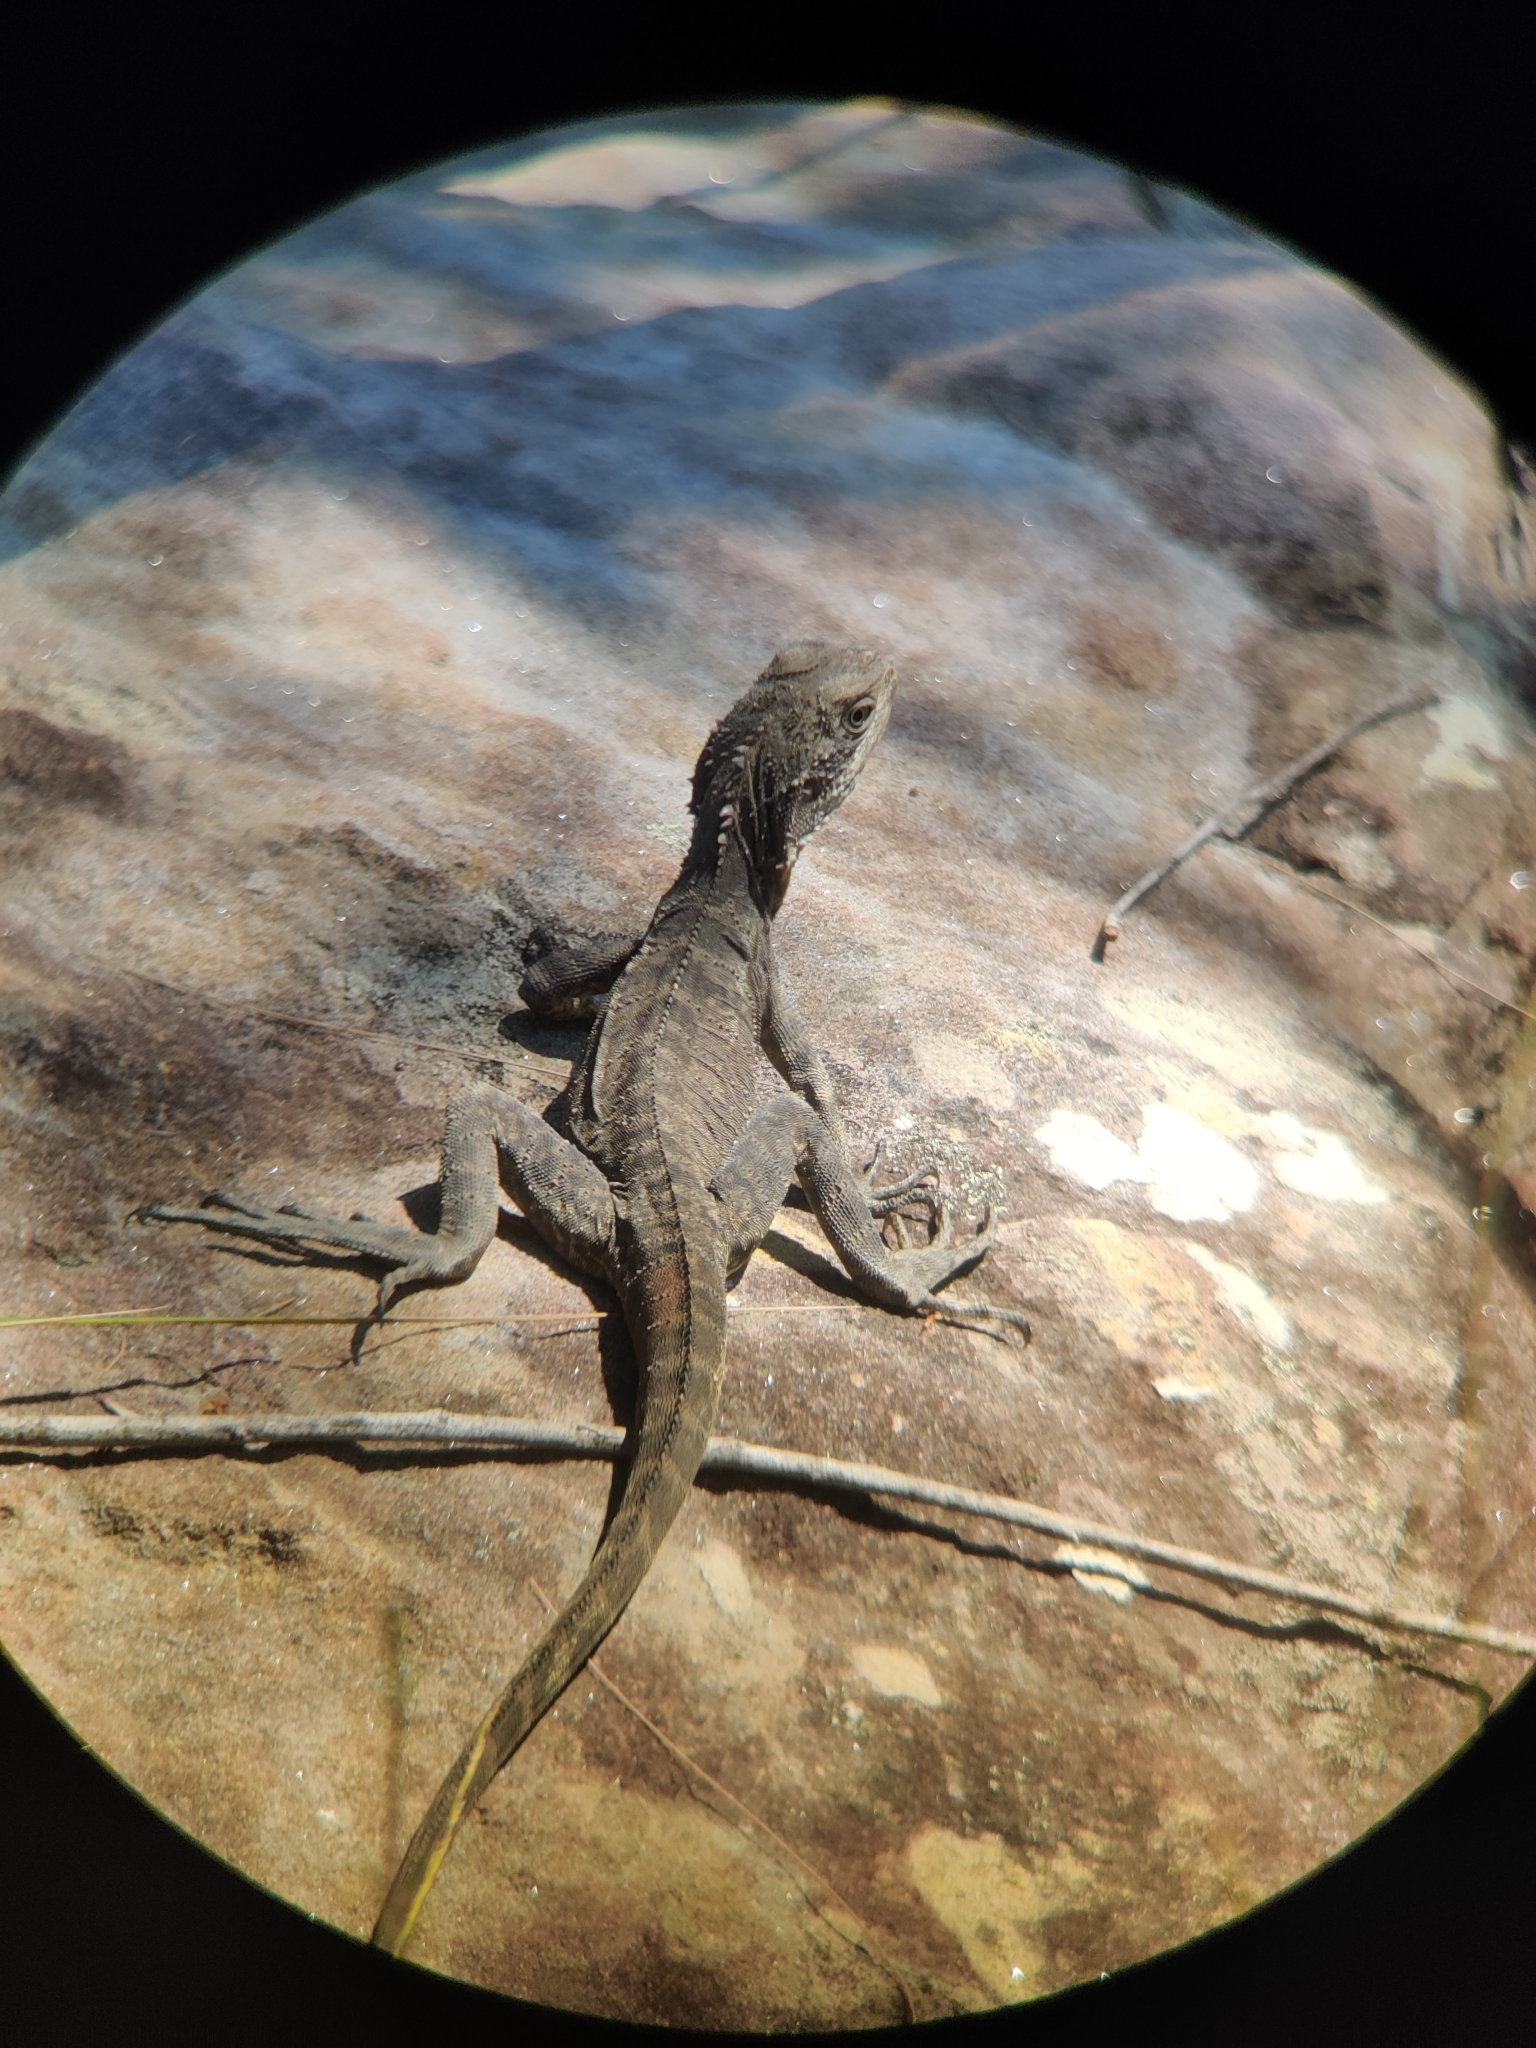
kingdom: Animalia
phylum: Chordata
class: Squamata
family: Agamidae
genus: Intellagama
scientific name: Intellagama lesueurii
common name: Eastern water dragon
